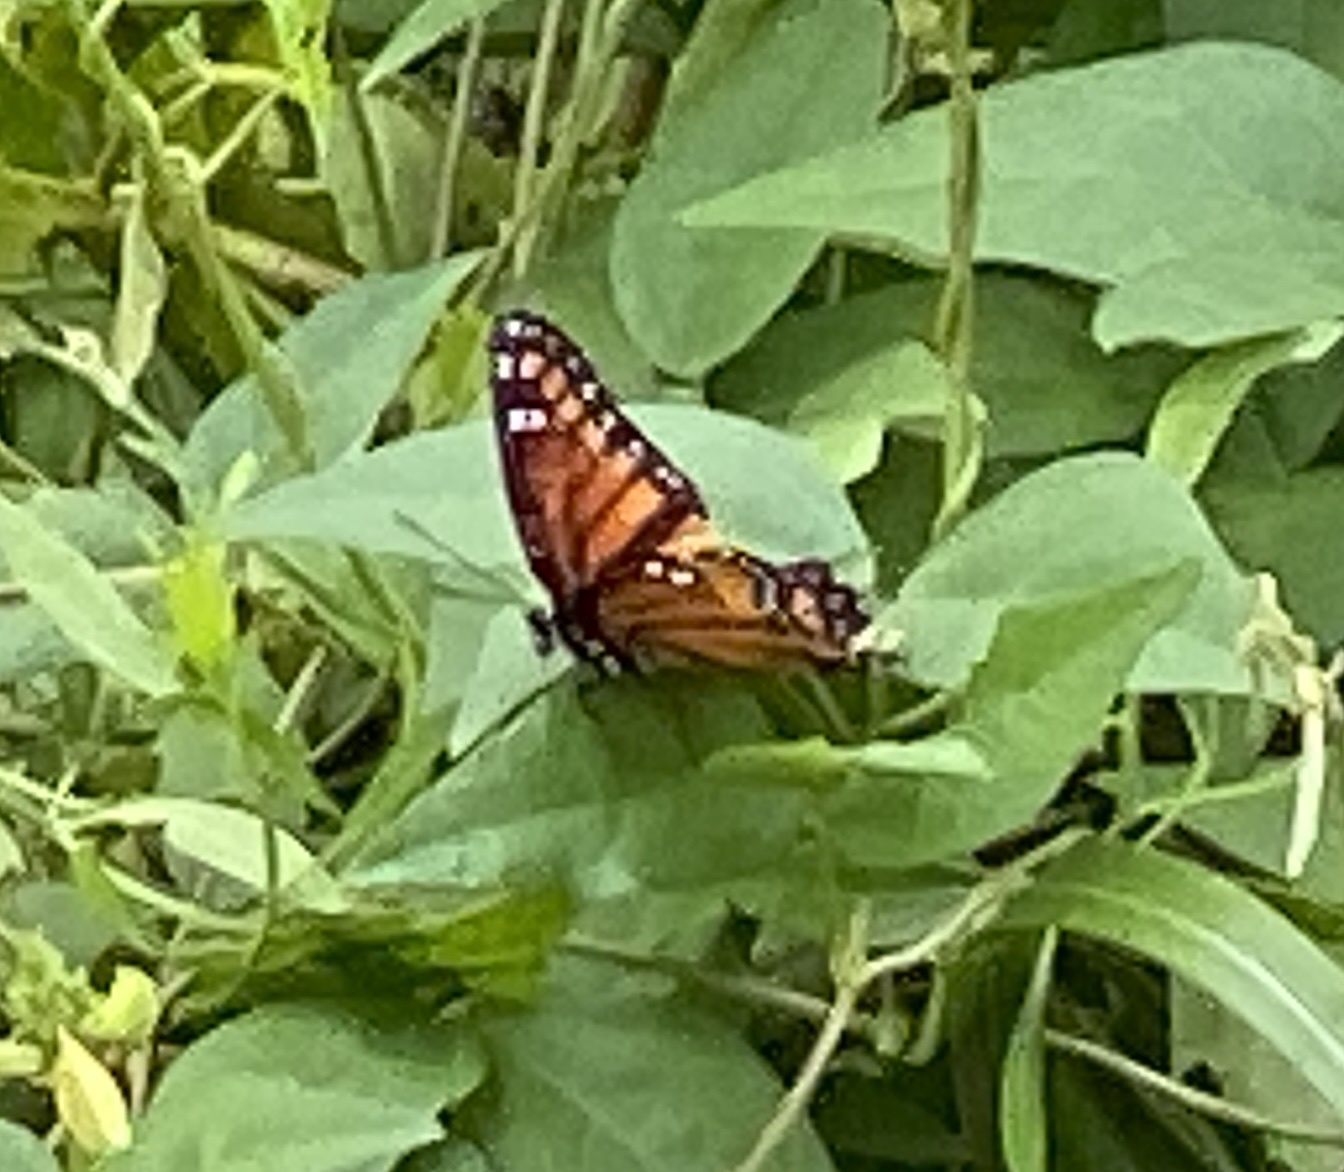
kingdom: Animalia
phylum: Arthropoda
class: Insecta
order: Lepidoptera
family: Nymphalidae
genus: Limenitis
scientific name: Limenitis archippus
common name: Viceroy
